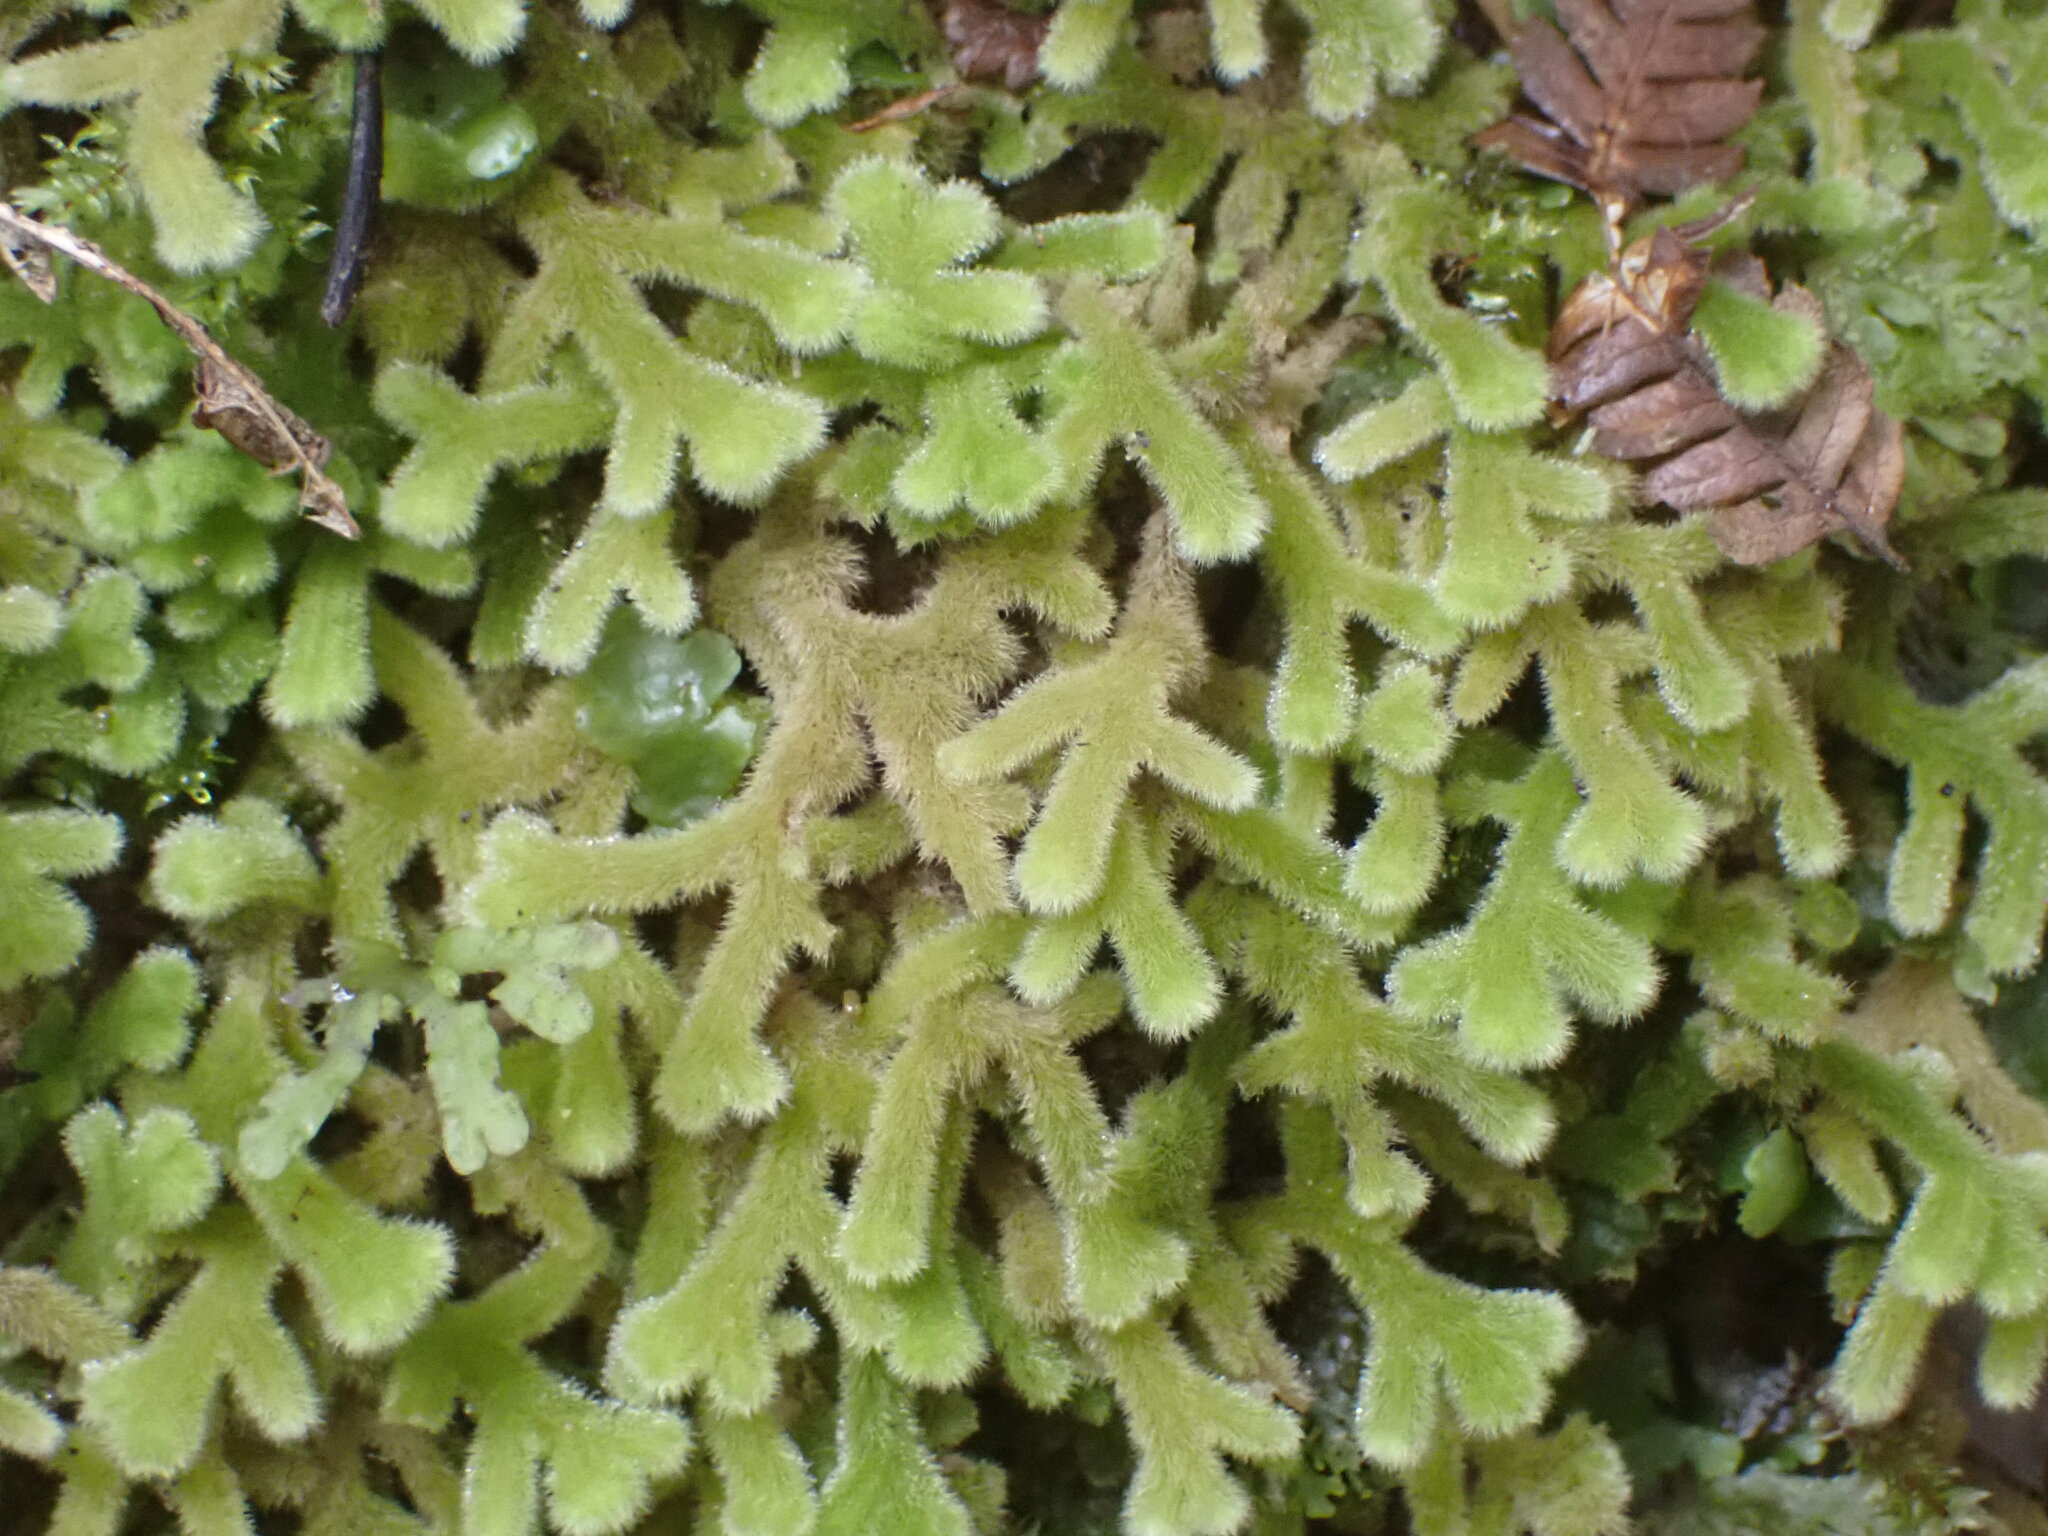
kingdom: Plantae
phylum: Marchantiophyta
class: Jungermanniopsida
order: Jungermanniales
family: Trichocoleaceae
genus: Leiomitra
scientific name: Leiomitra lanata
